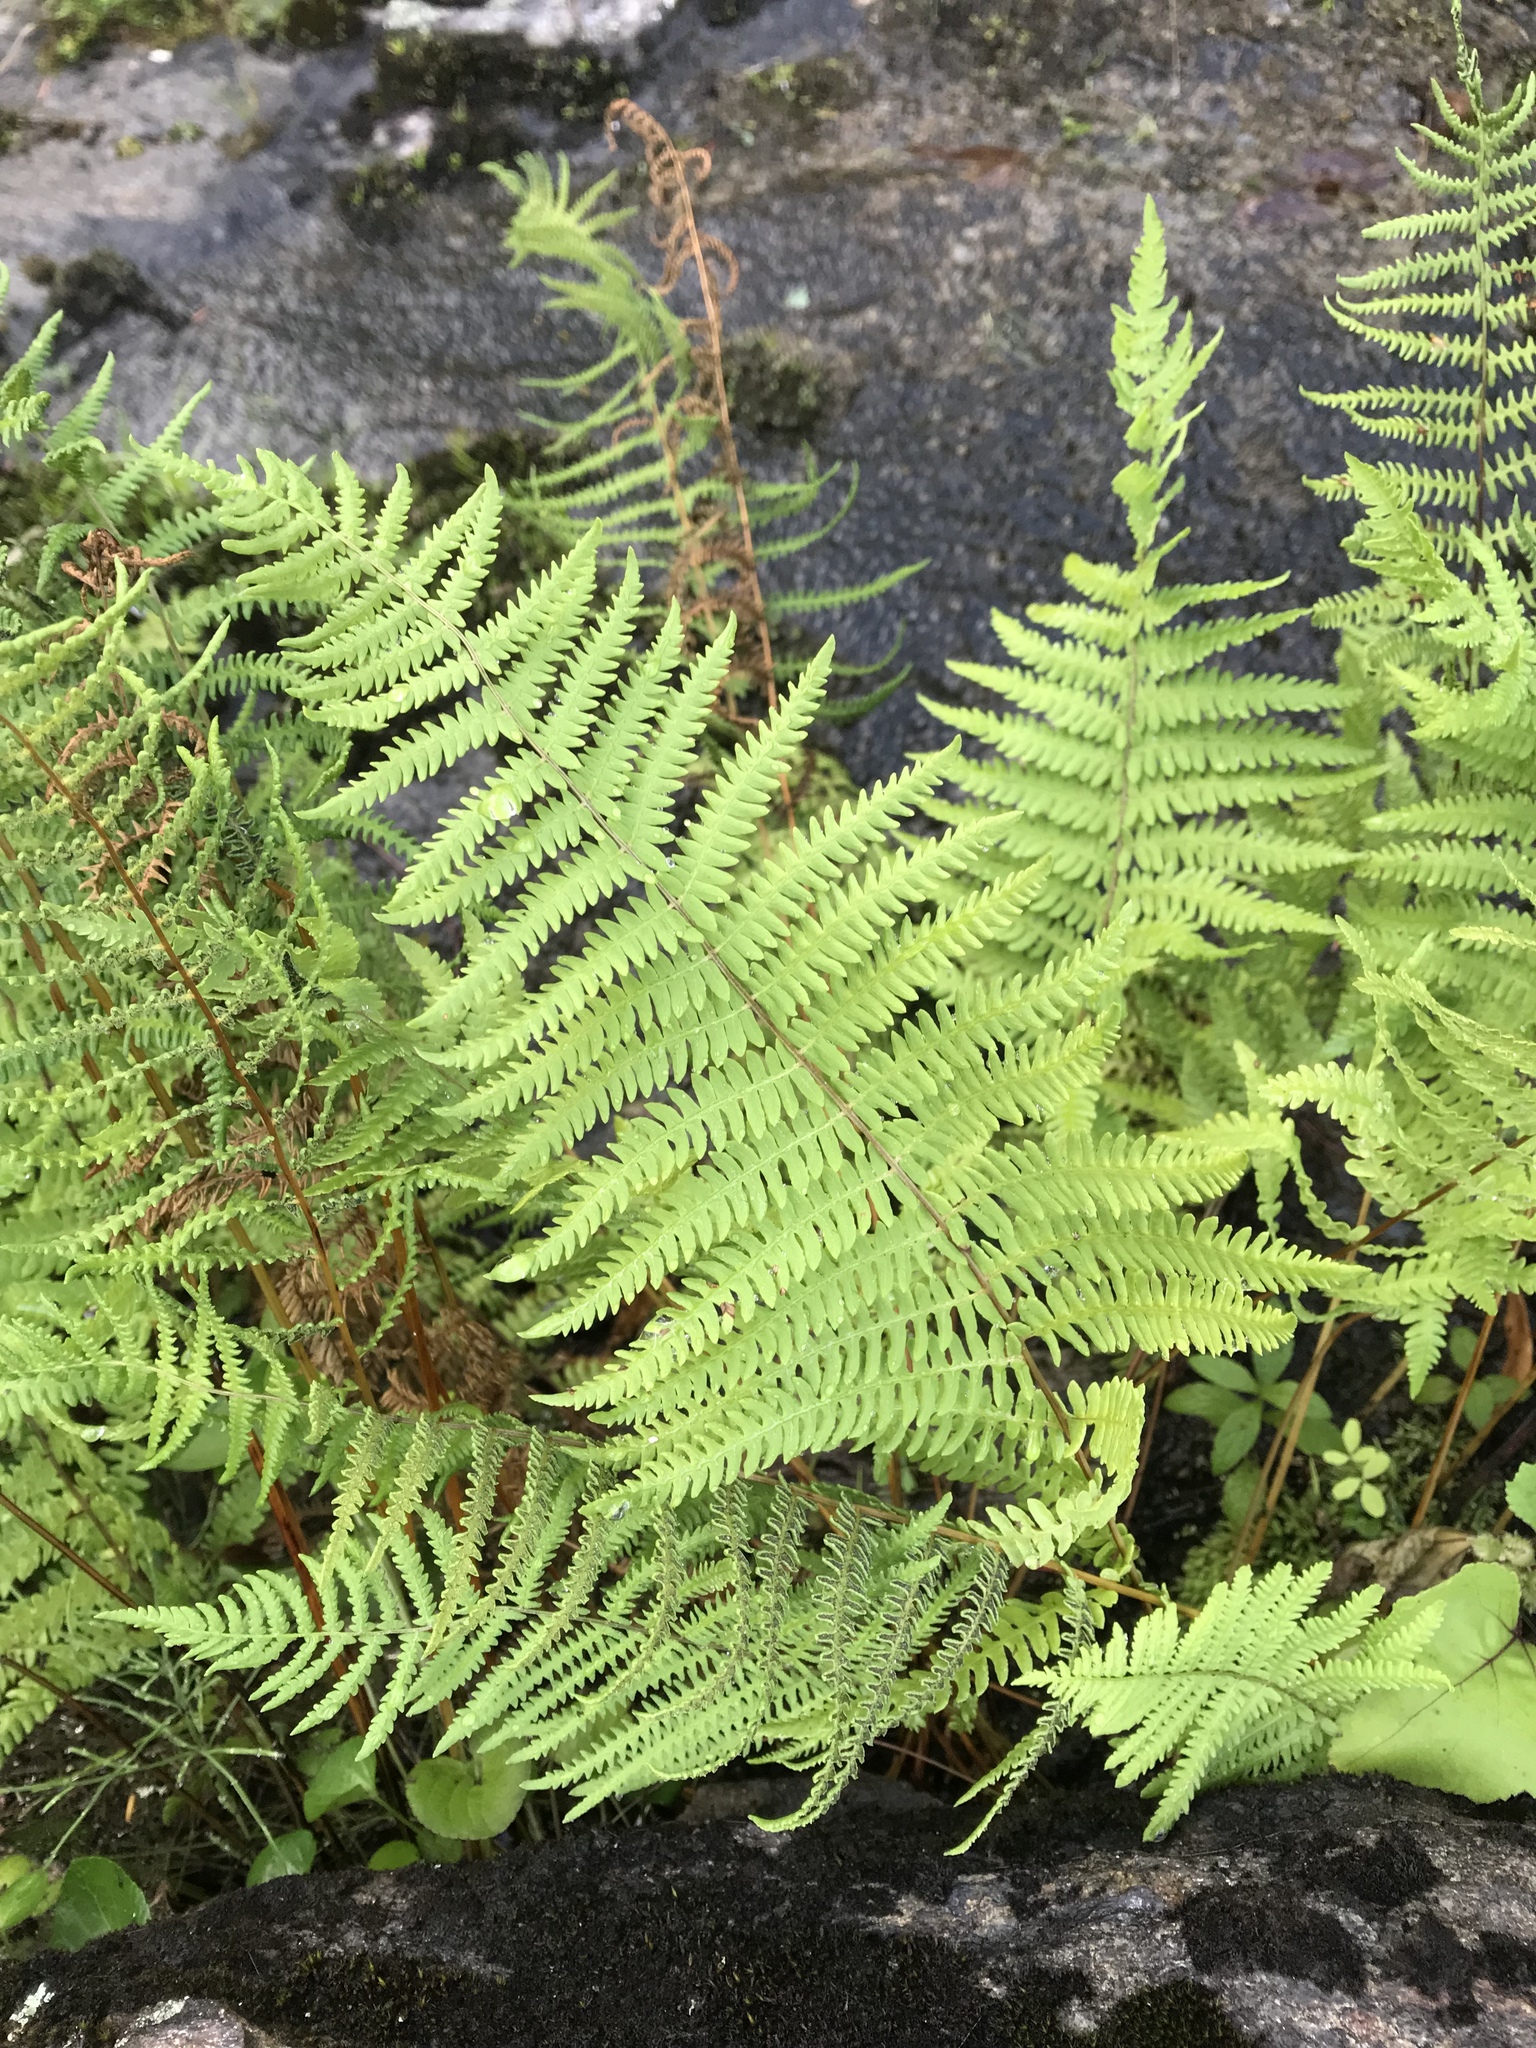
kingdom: Plantae
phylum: Tracheophyta
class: Polypodiopsida
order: Polypodiales
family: Thelypteridaceae
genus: Thelypteris
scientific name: Thelypteris palustris
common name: Marsh fern
